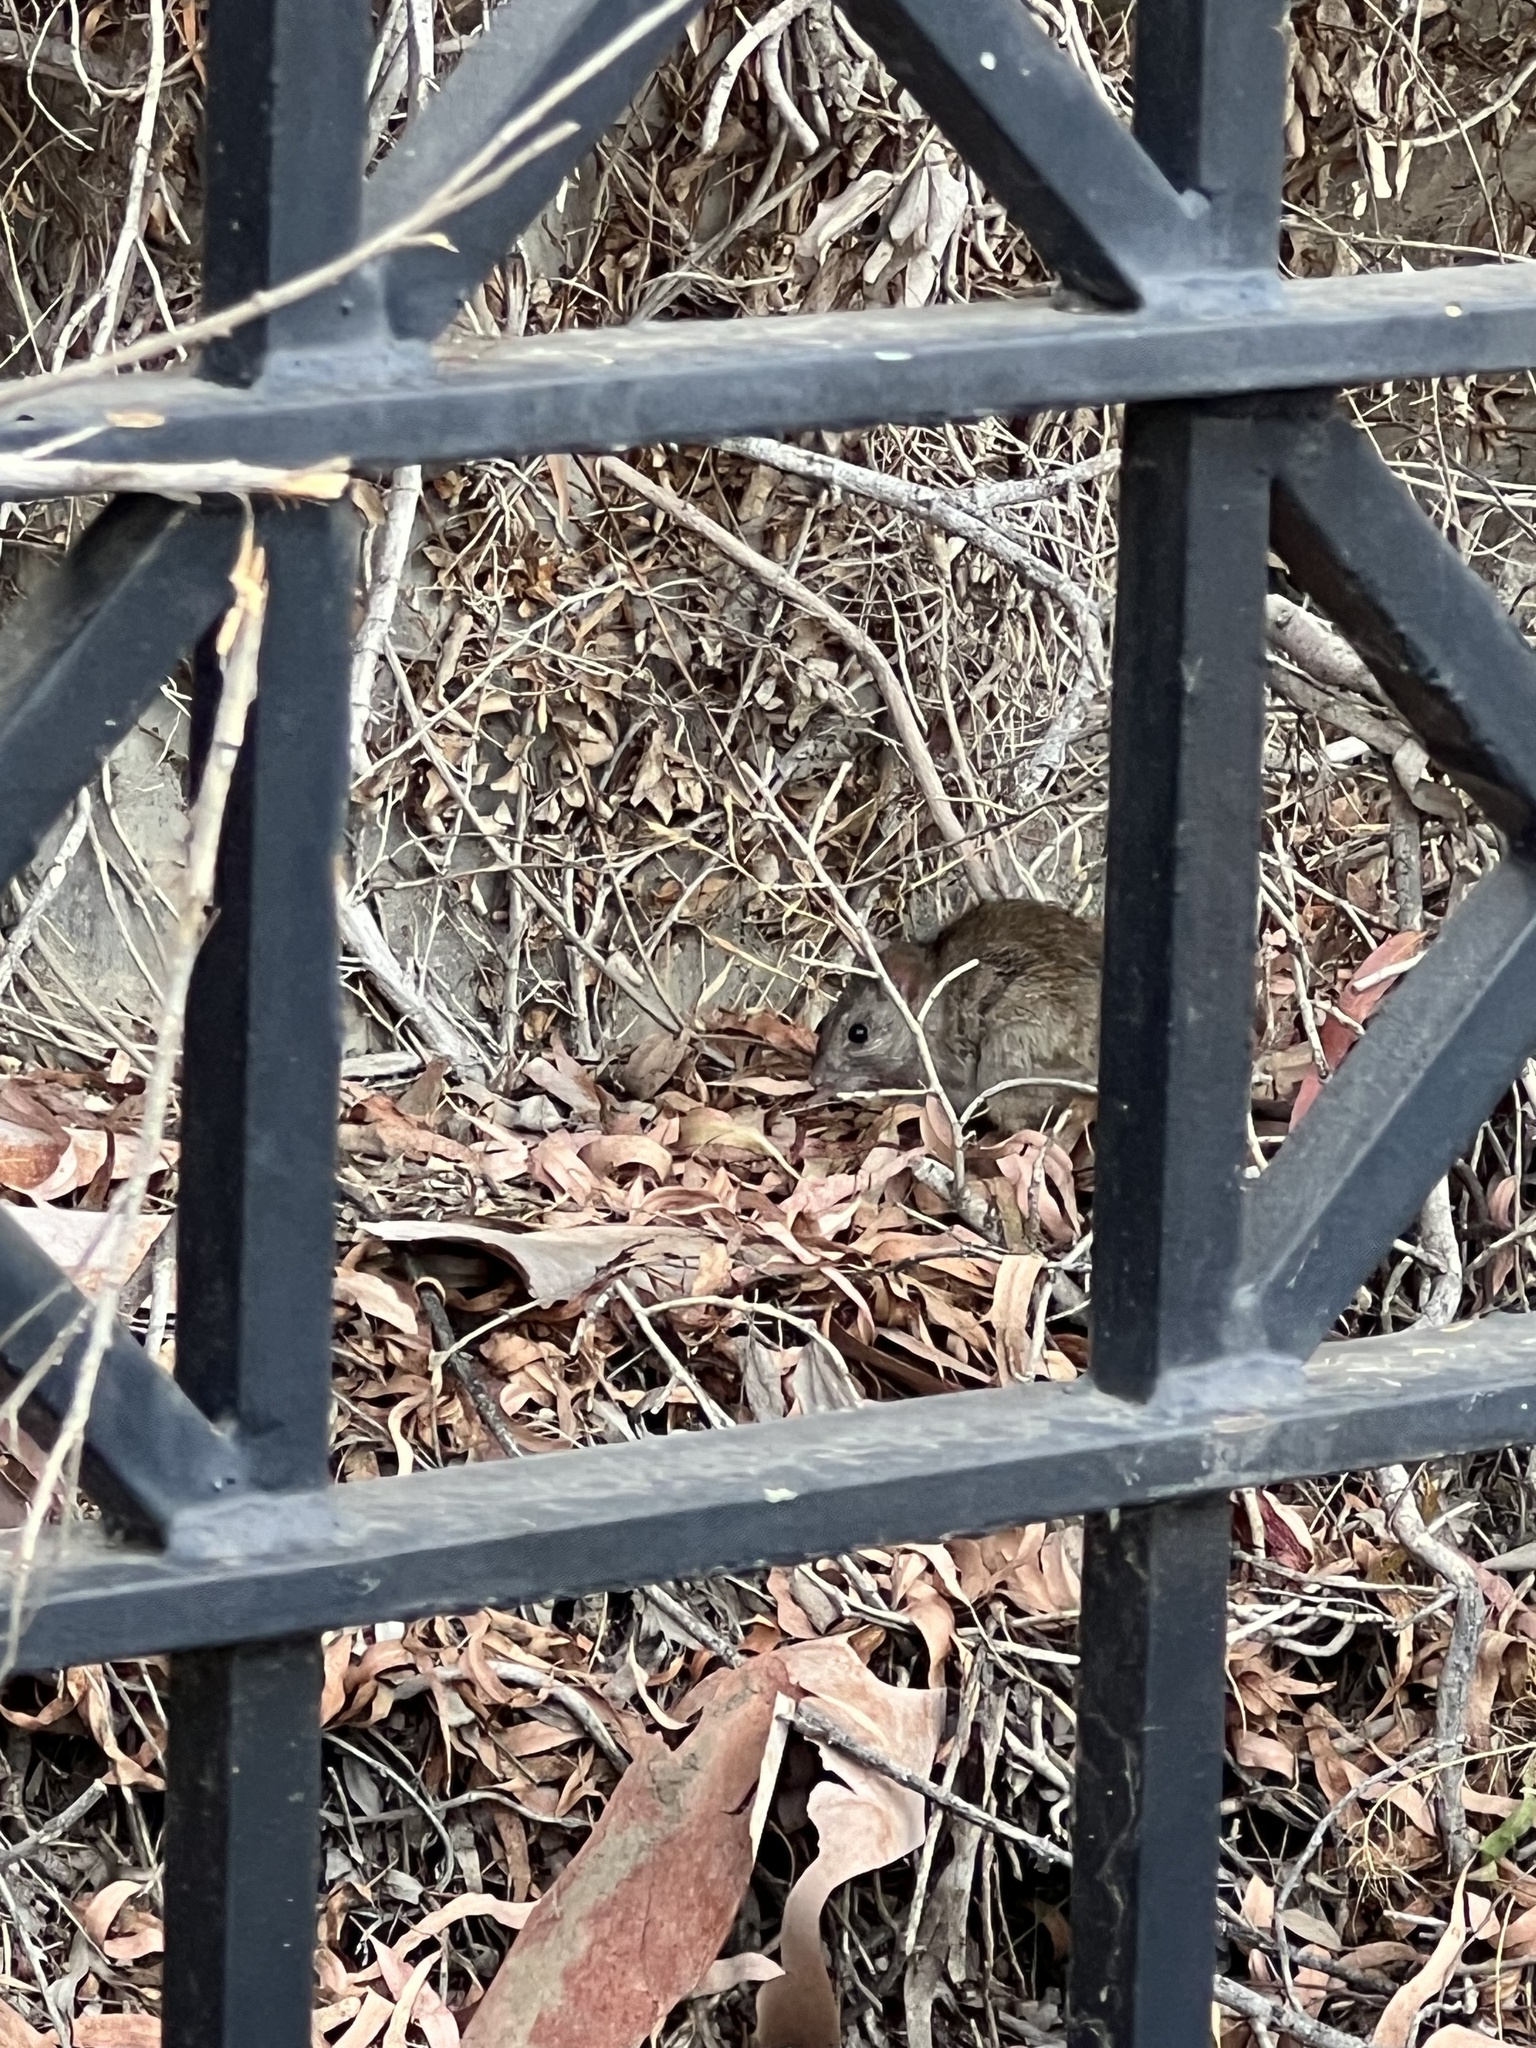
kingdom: Animalia
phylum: Chordata
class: Mammalia
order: Rodentia
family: Muridae
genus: Rattus
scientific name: Rattus rattus
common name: Black rat
